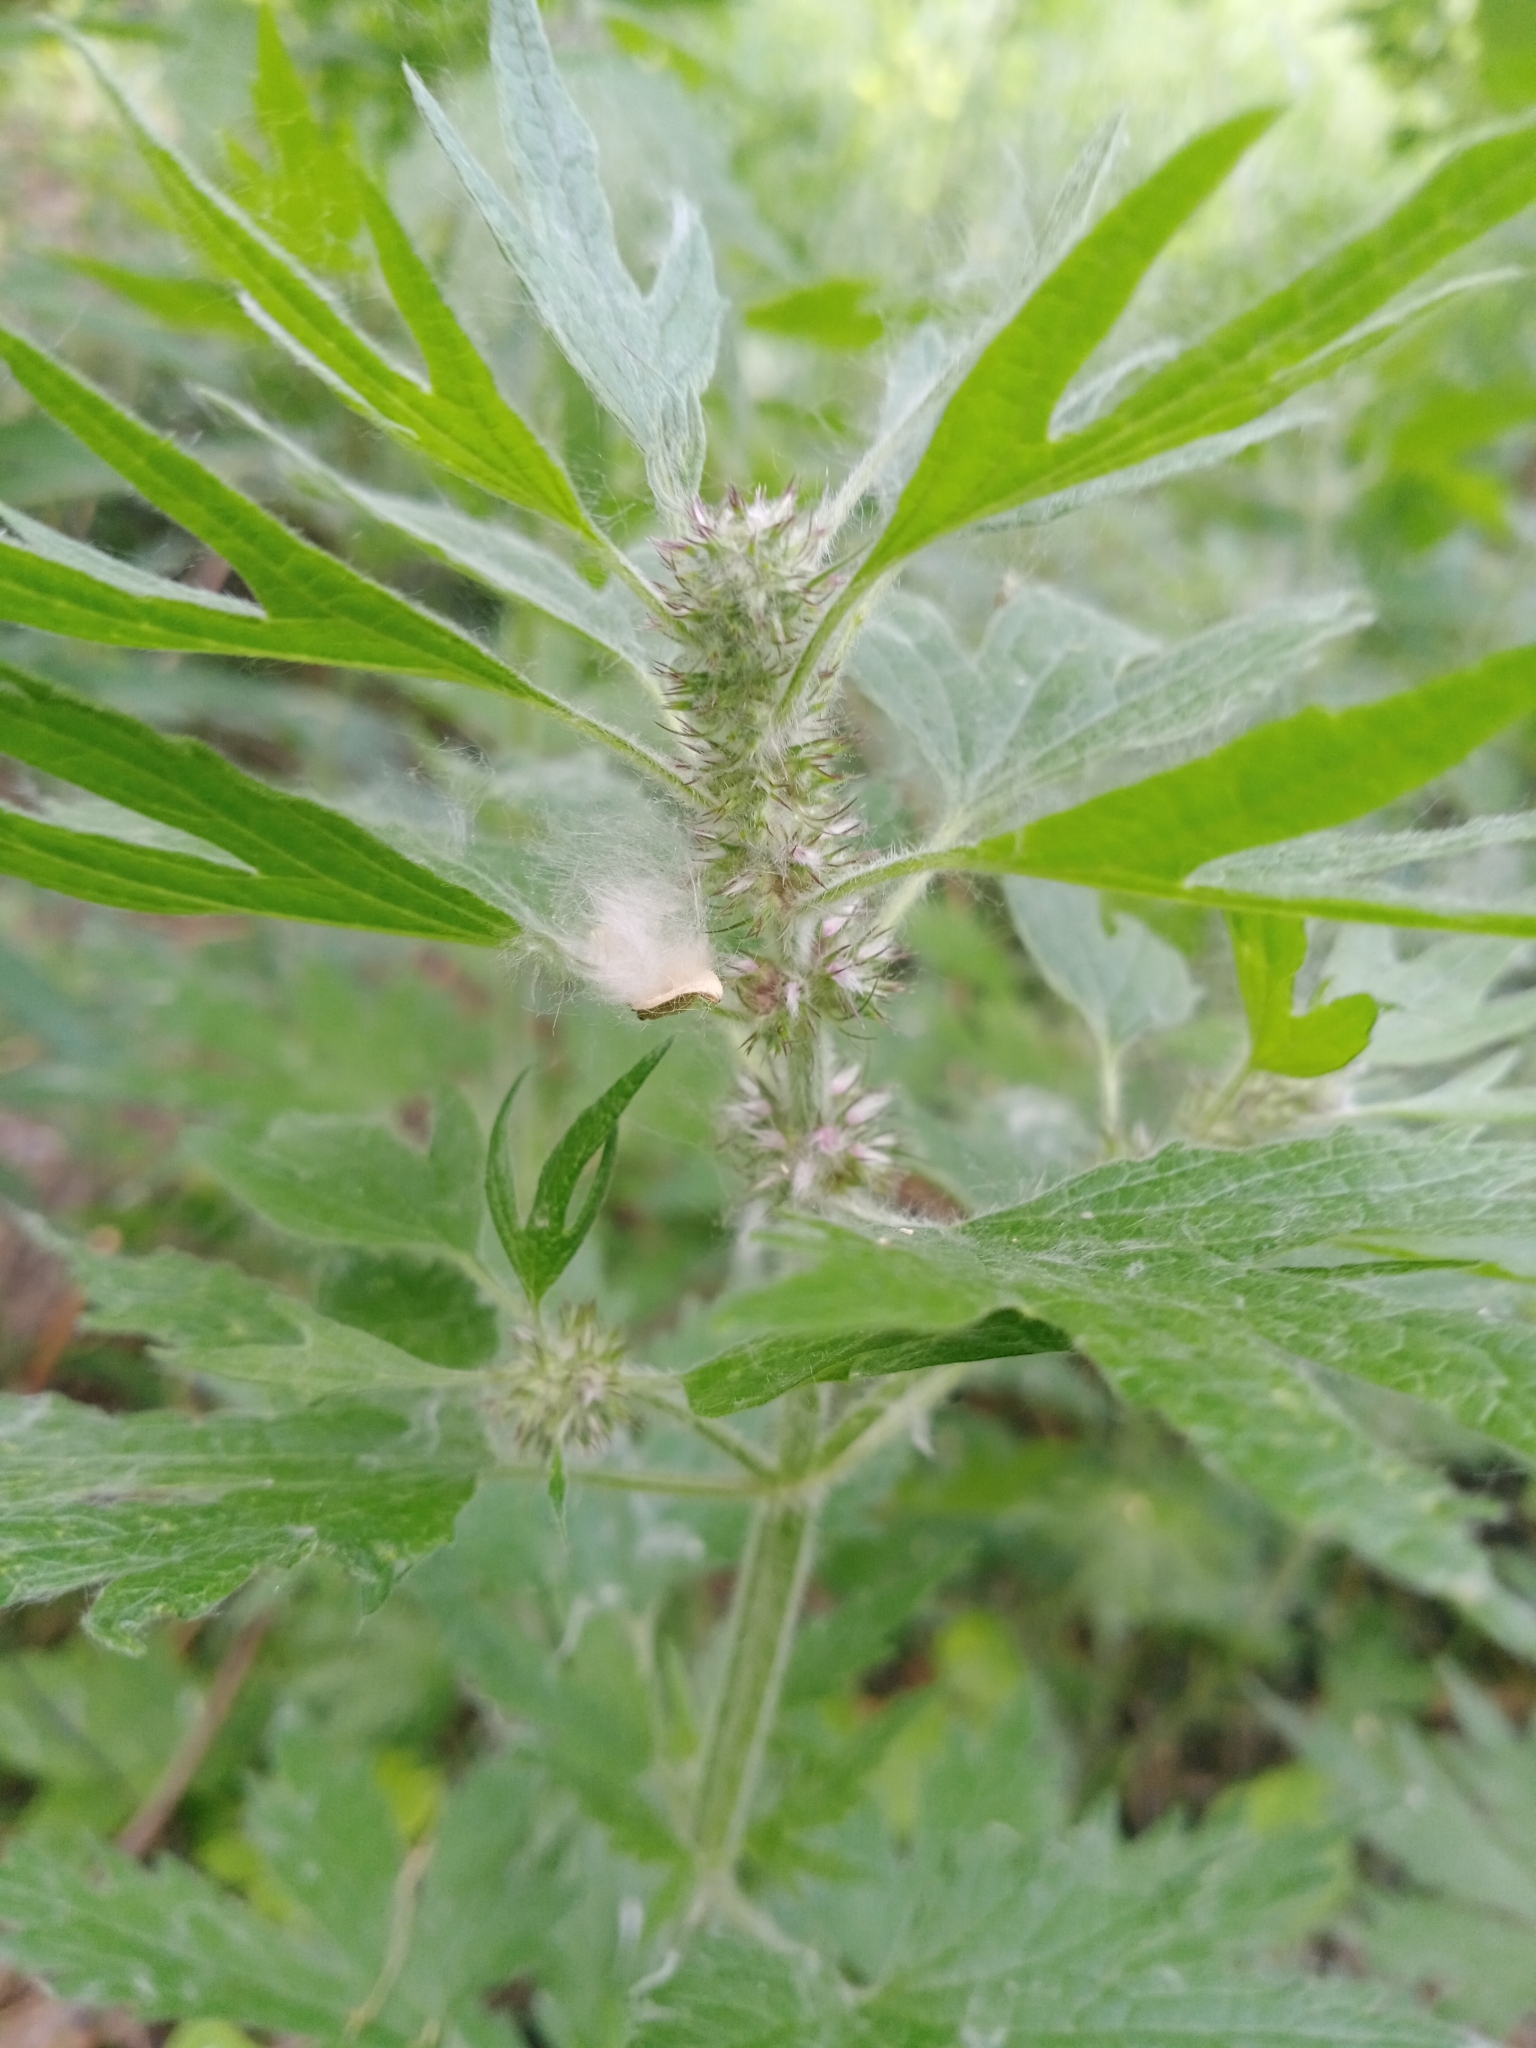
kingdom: Plantae
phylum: Tracheophyta
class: Magnoliopsida
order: Lamiales
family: Lamiaceae
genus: Leonurus
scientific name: Leonurus quinquelobatus
